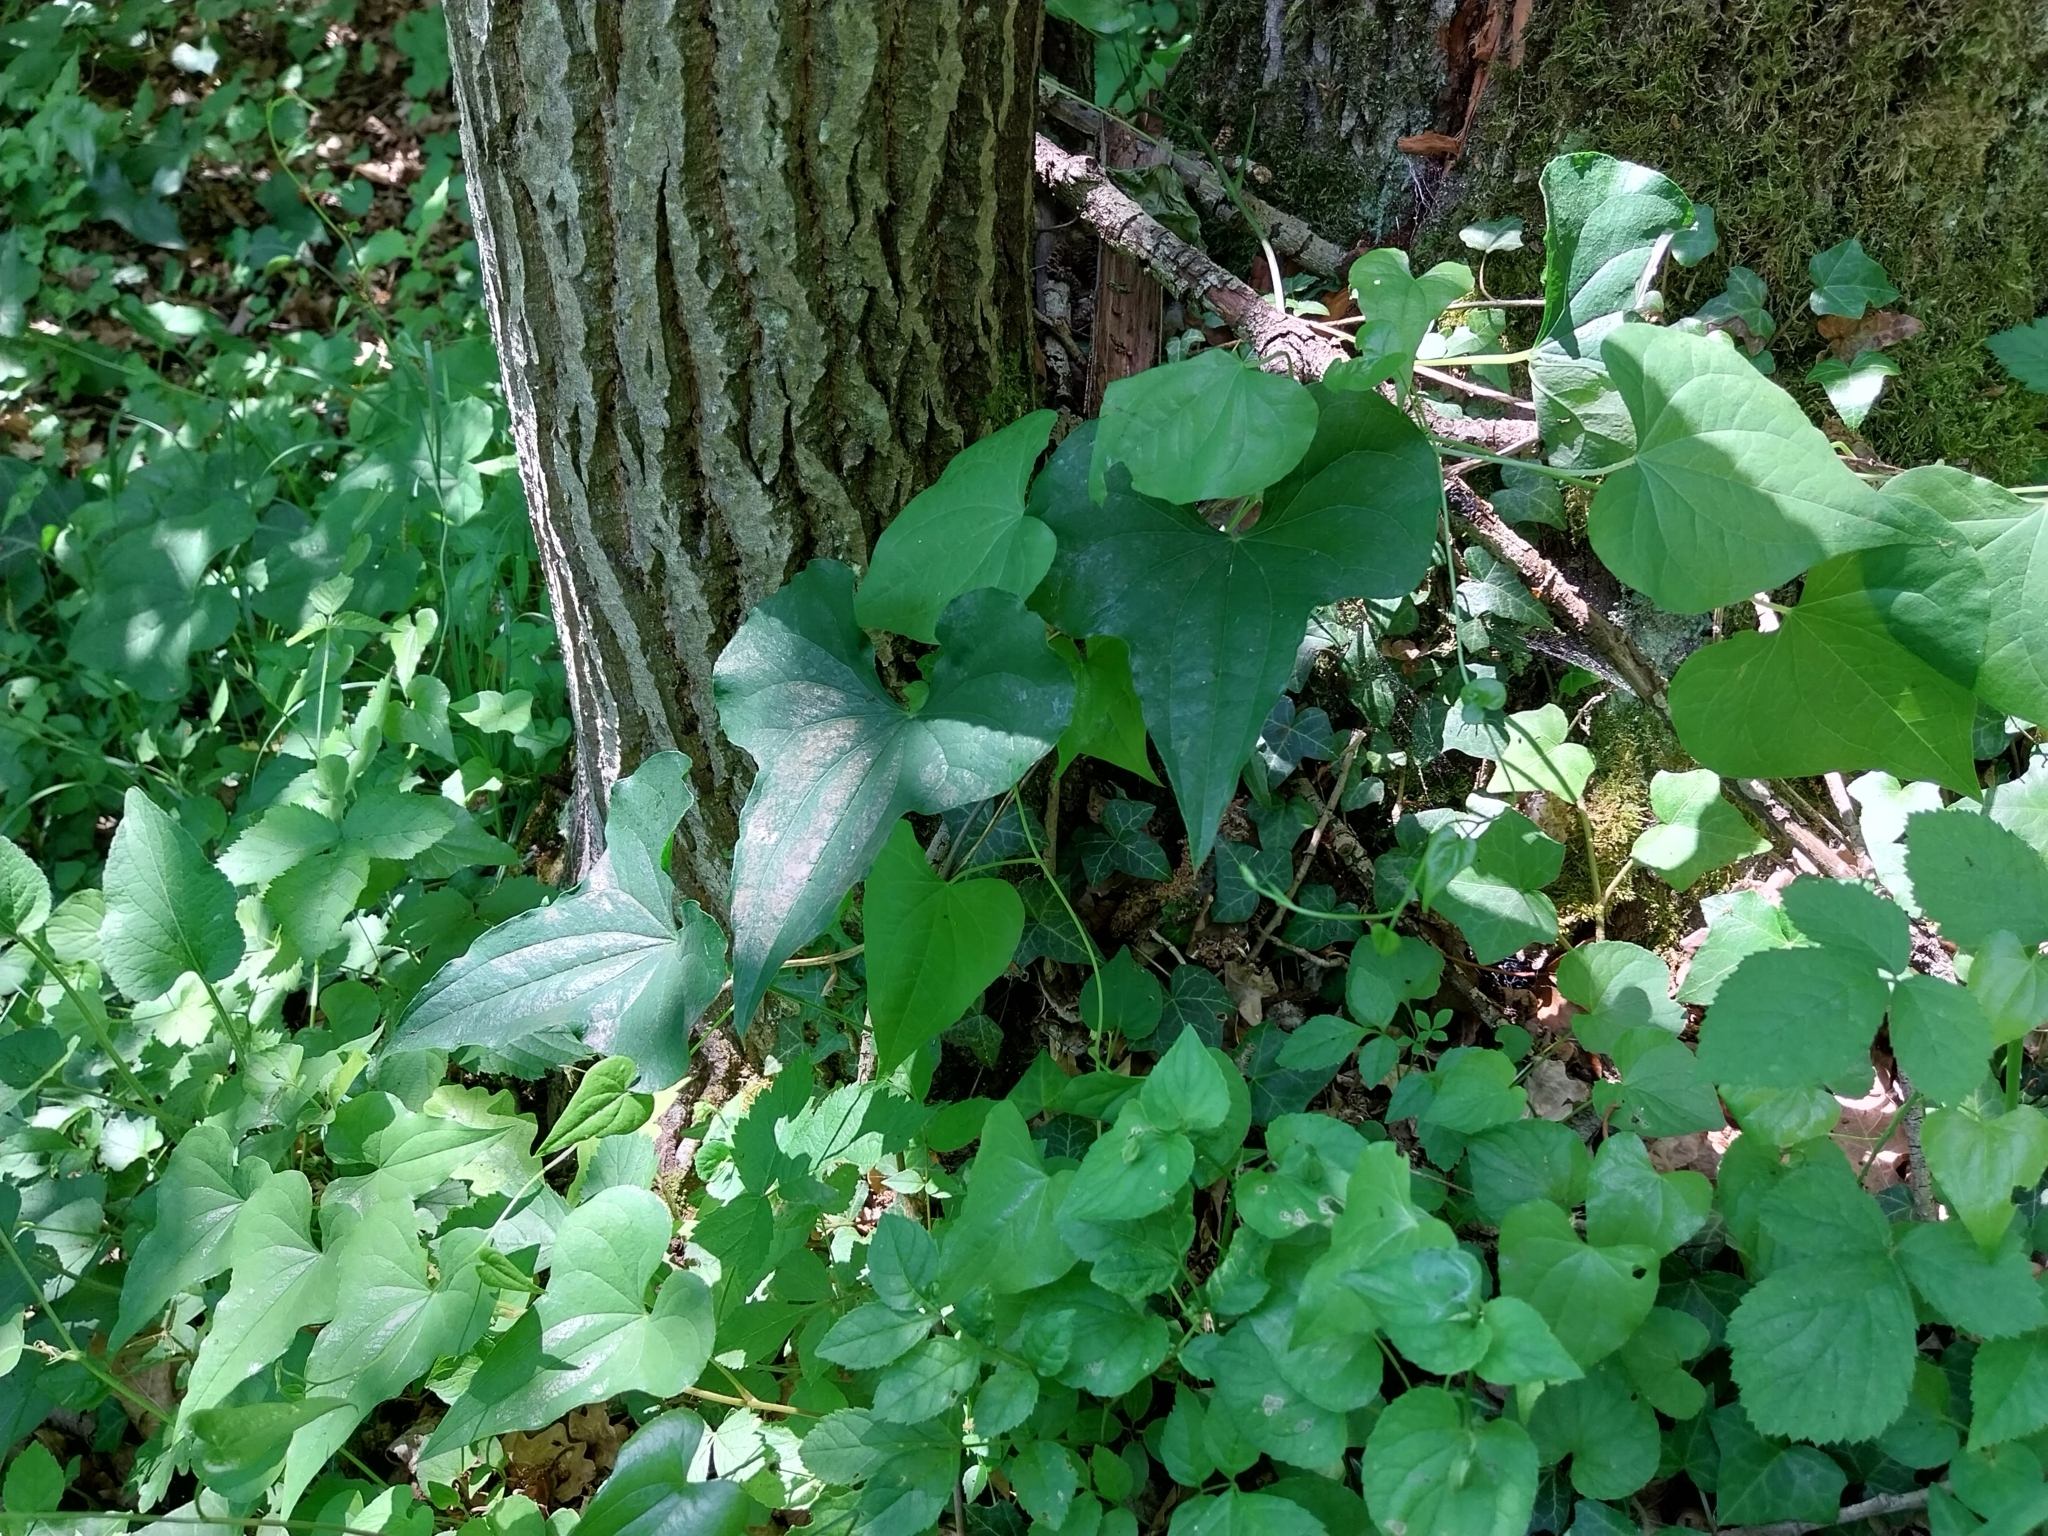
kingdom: Plantae
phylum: Tracheophyta
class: Liliopsida
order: Dioscoreales
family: Dioscoreaceae
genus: Dioscorea
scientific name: Dioscorea communis
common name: Black-bindweed
